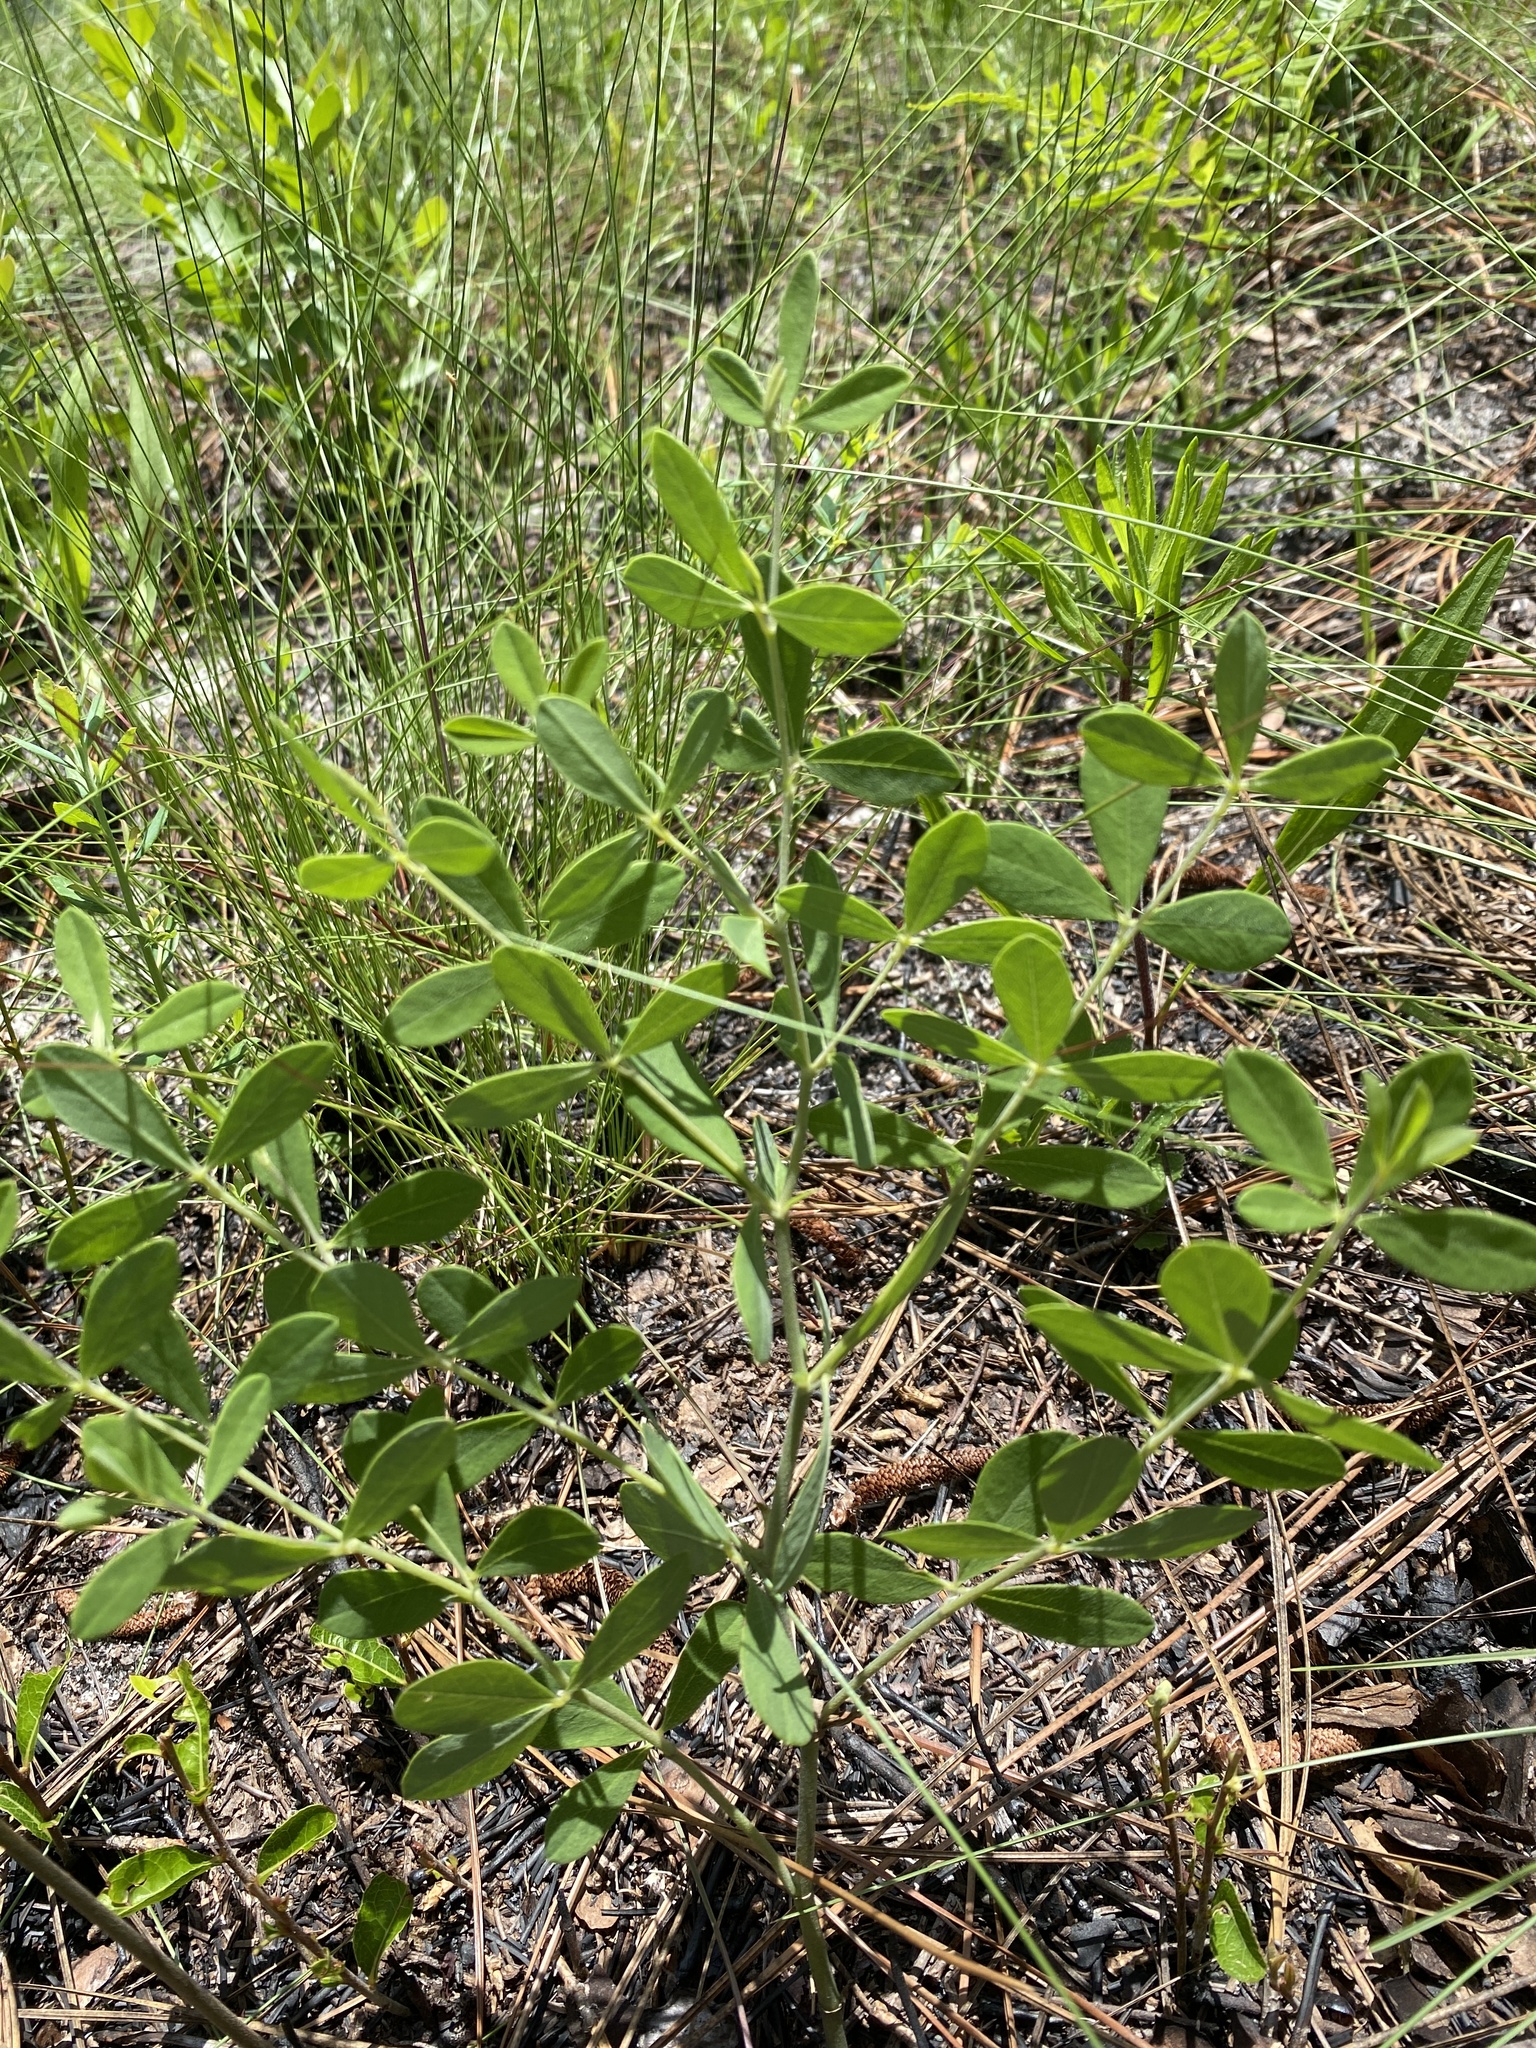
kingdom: Plantae
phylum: Tracheophyta
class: Magnoliopsida
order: Fabales
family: Fabaceae
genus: Baptisia
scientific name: Baptisia lecontei
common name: Pineland wild indigo
